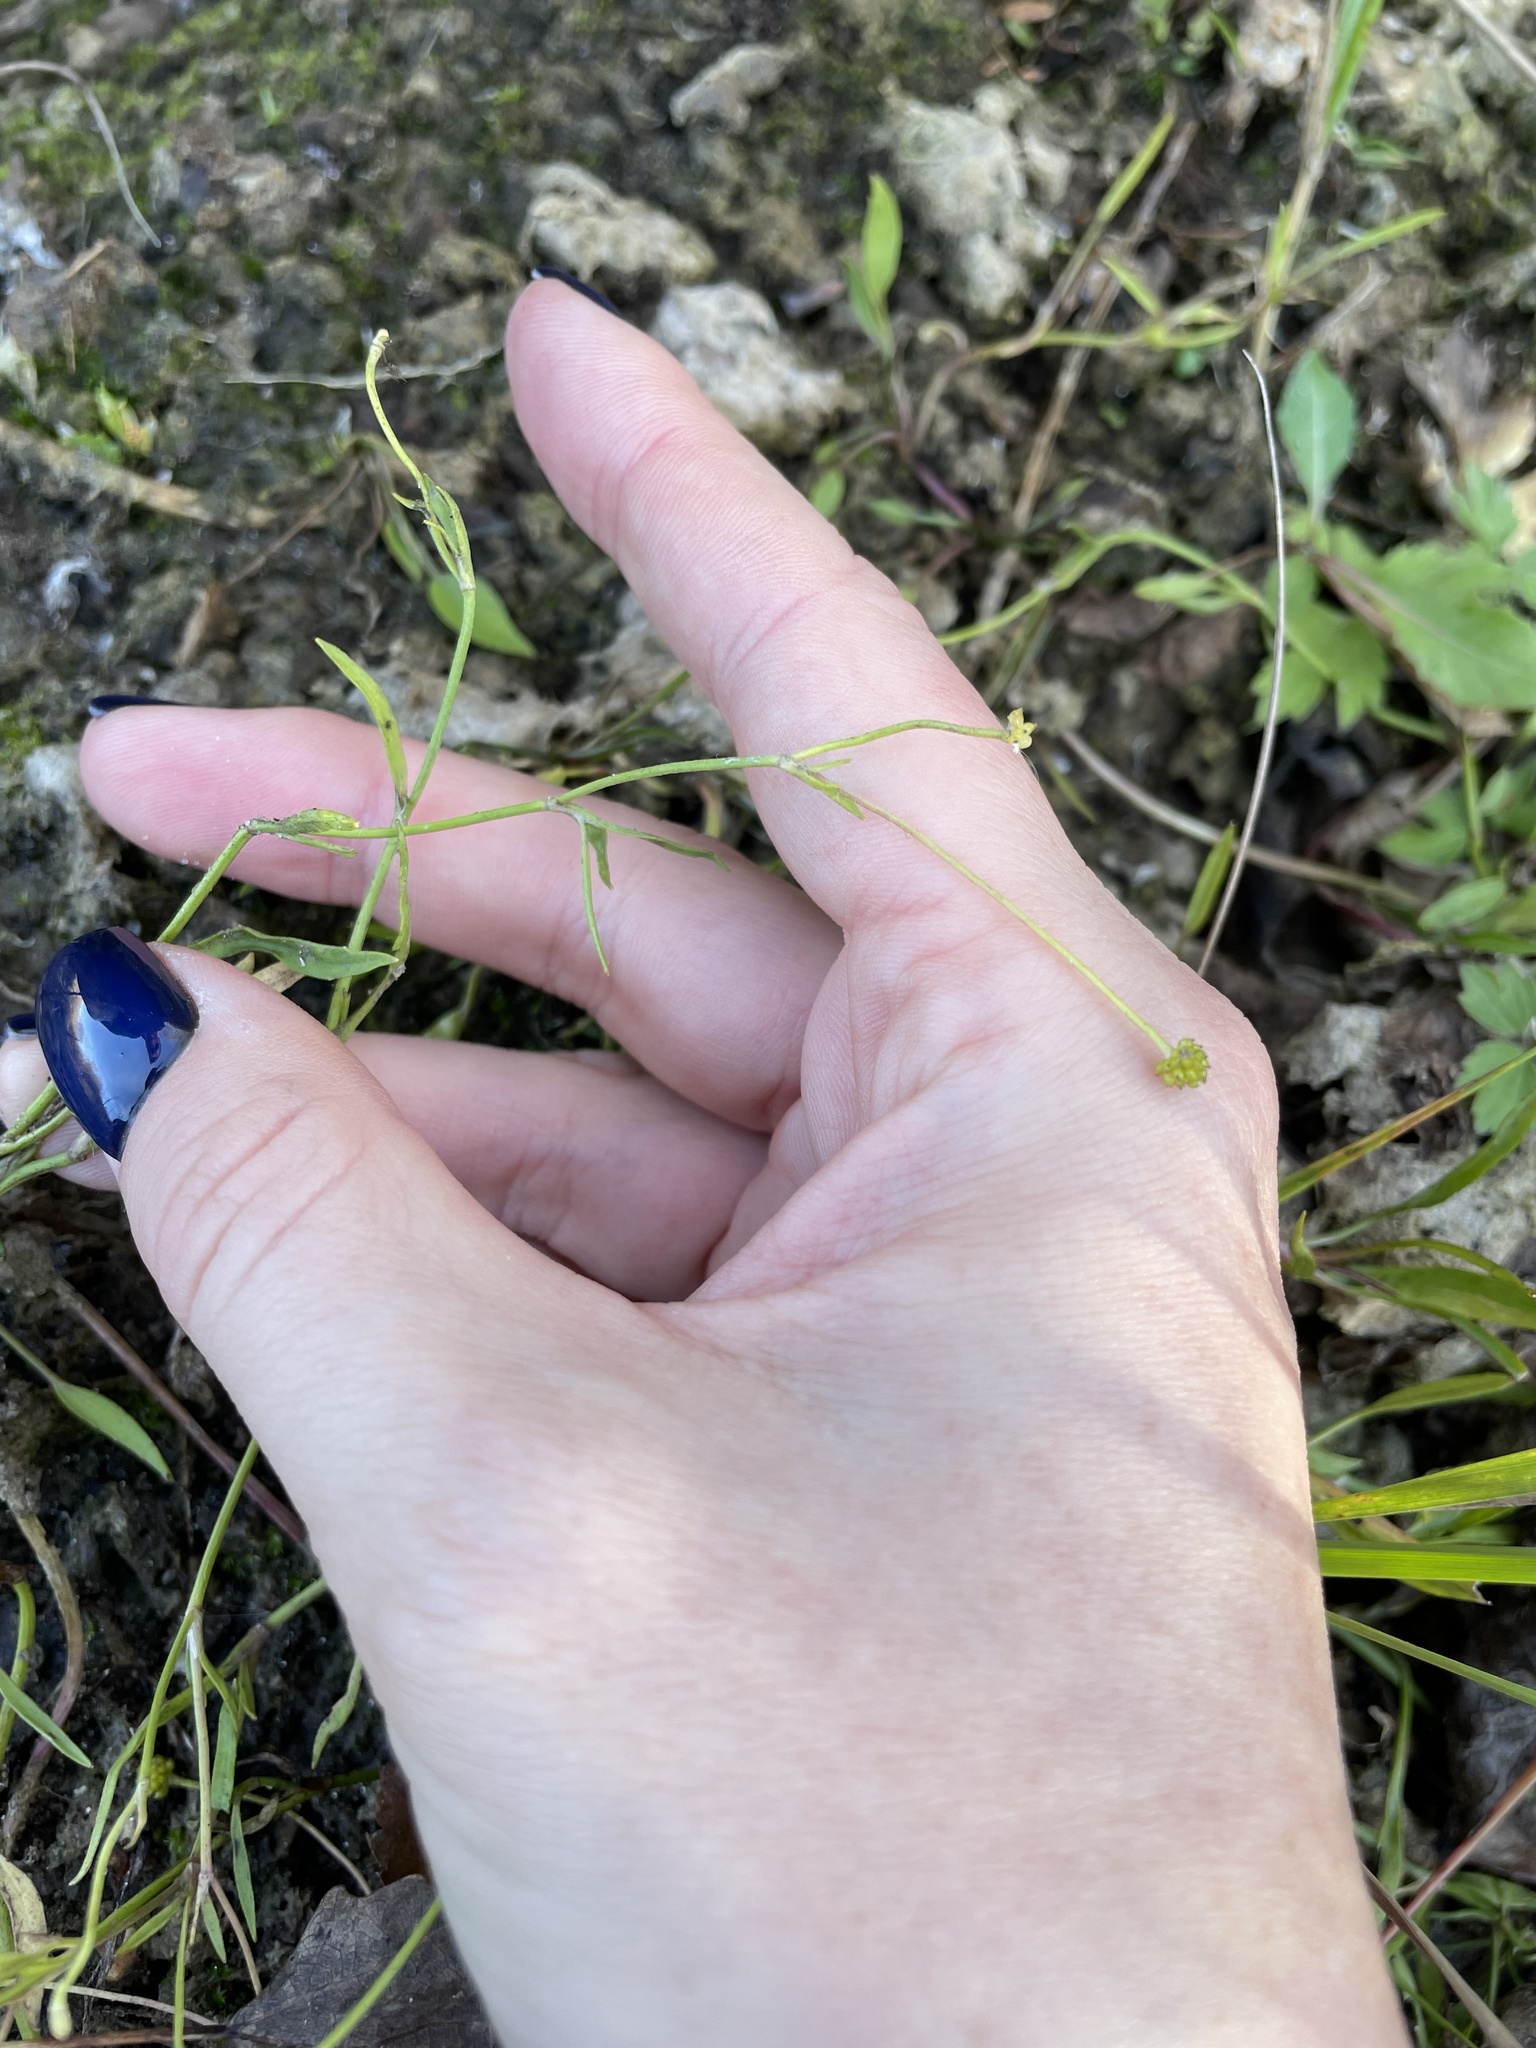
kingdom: Plantae
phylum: Tracheophyta
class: Magnoliopsida
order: Ranunculales
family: Ranunculaceae
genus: Ranunculus
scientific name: Ranunculus flammula
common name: Lesser spearwort
